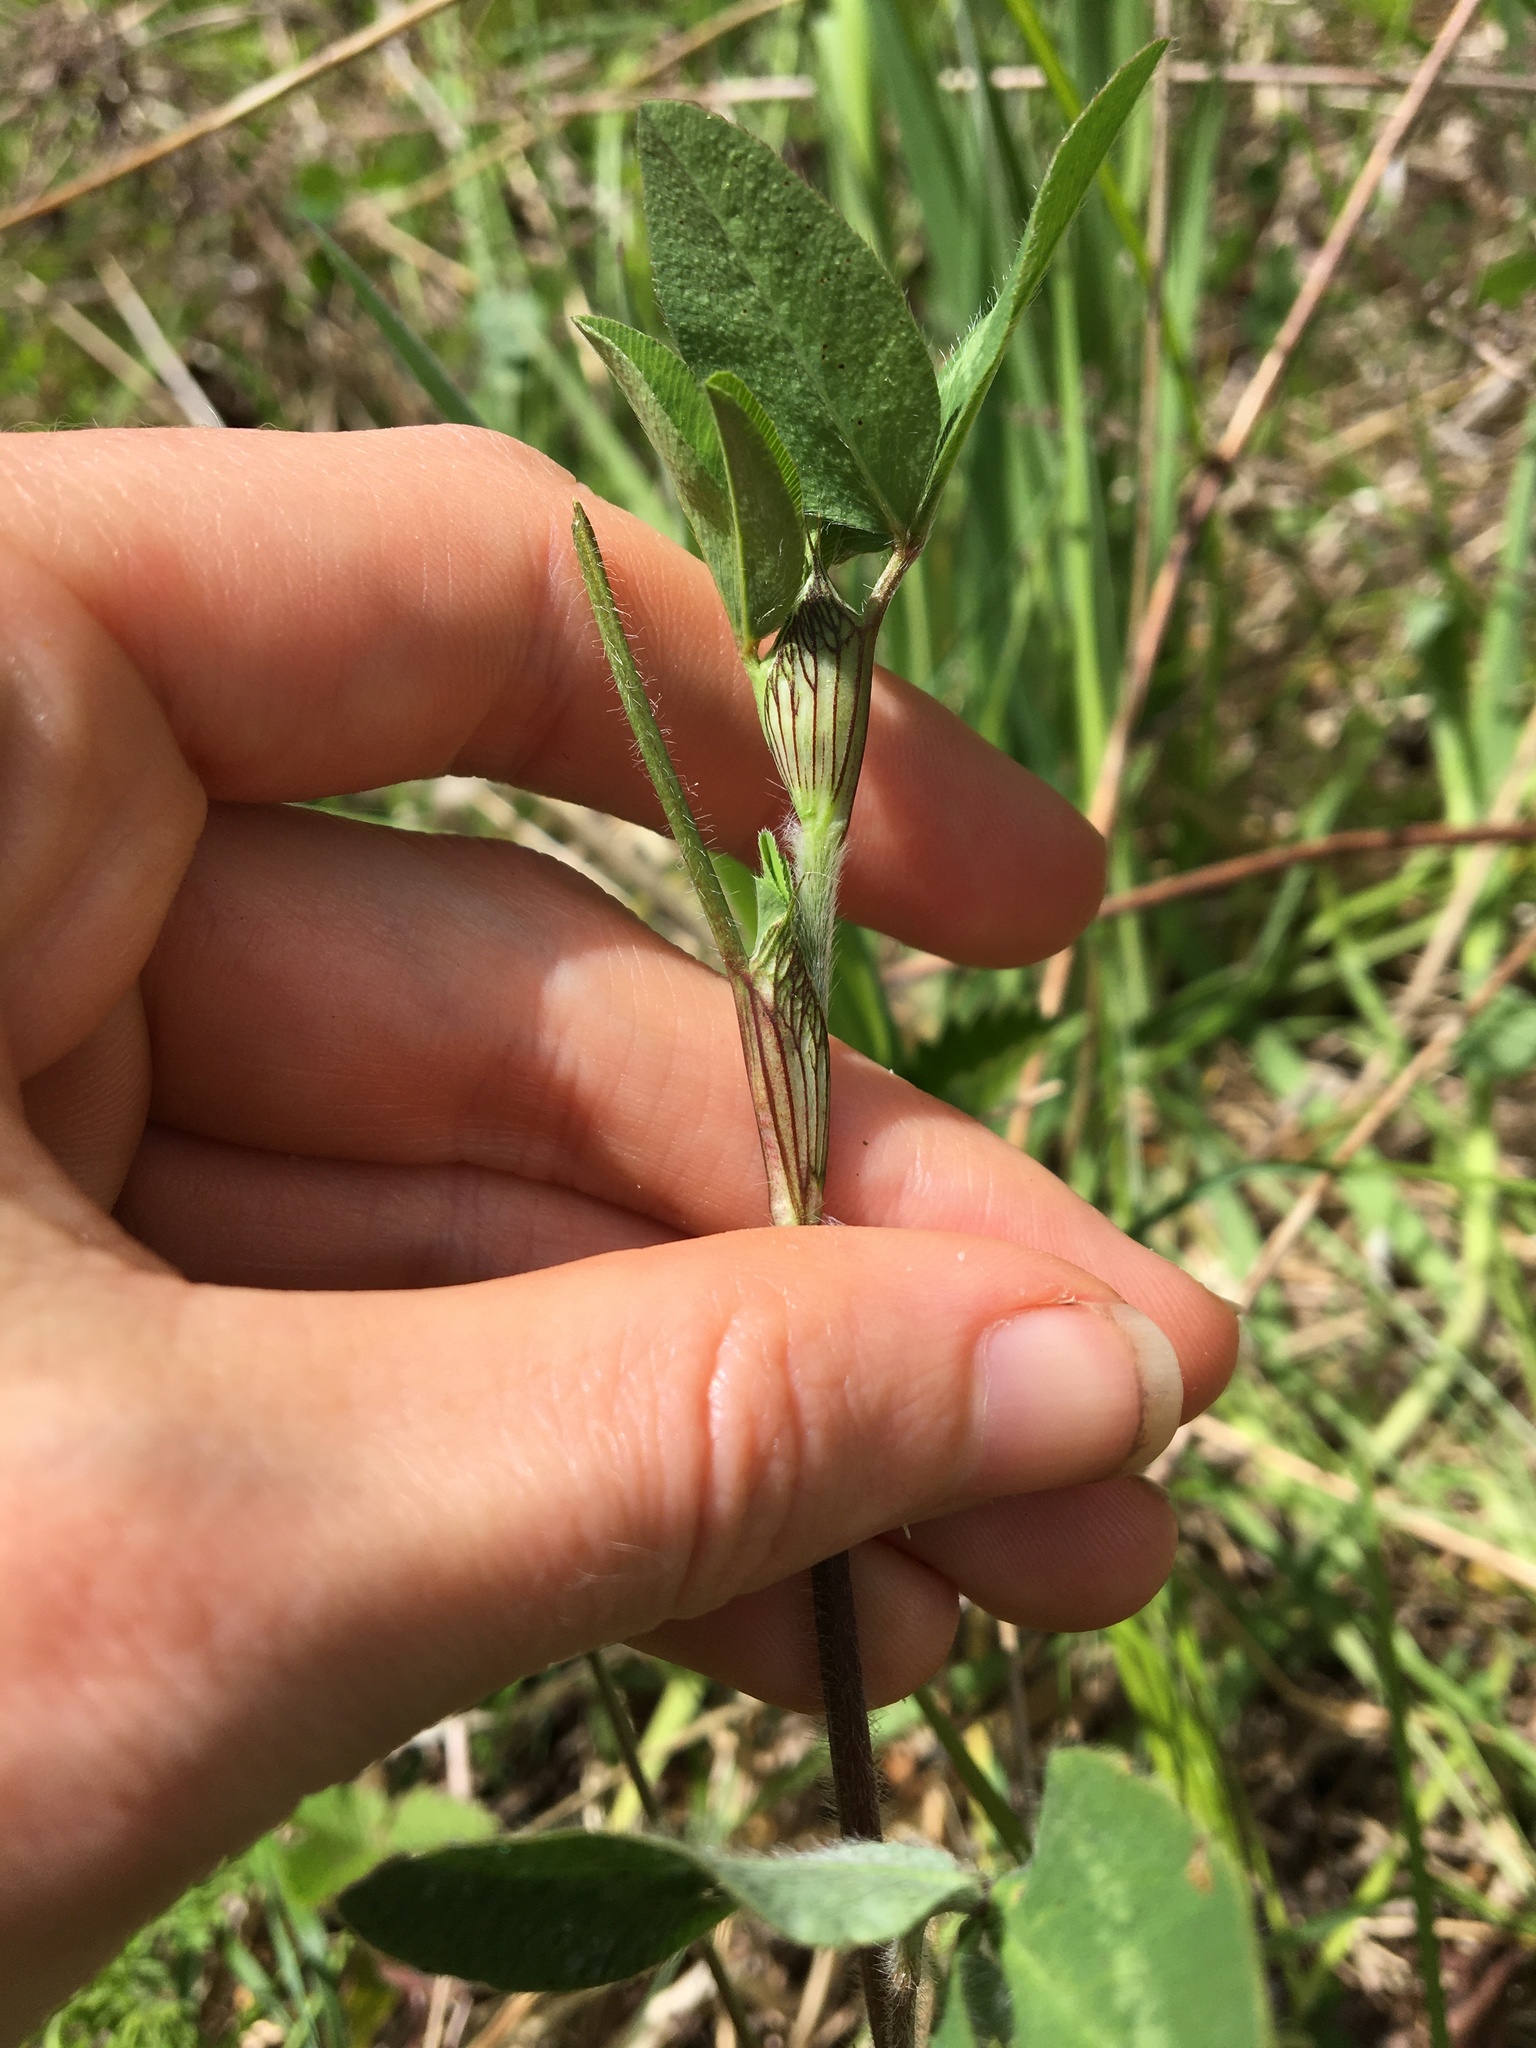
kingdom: Plantae
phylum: Tracheophyta
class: Magnoliopsida
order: Fabales
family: Fabaceae
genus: Trifolium
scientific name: Trifolium pratense
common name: Red clover
